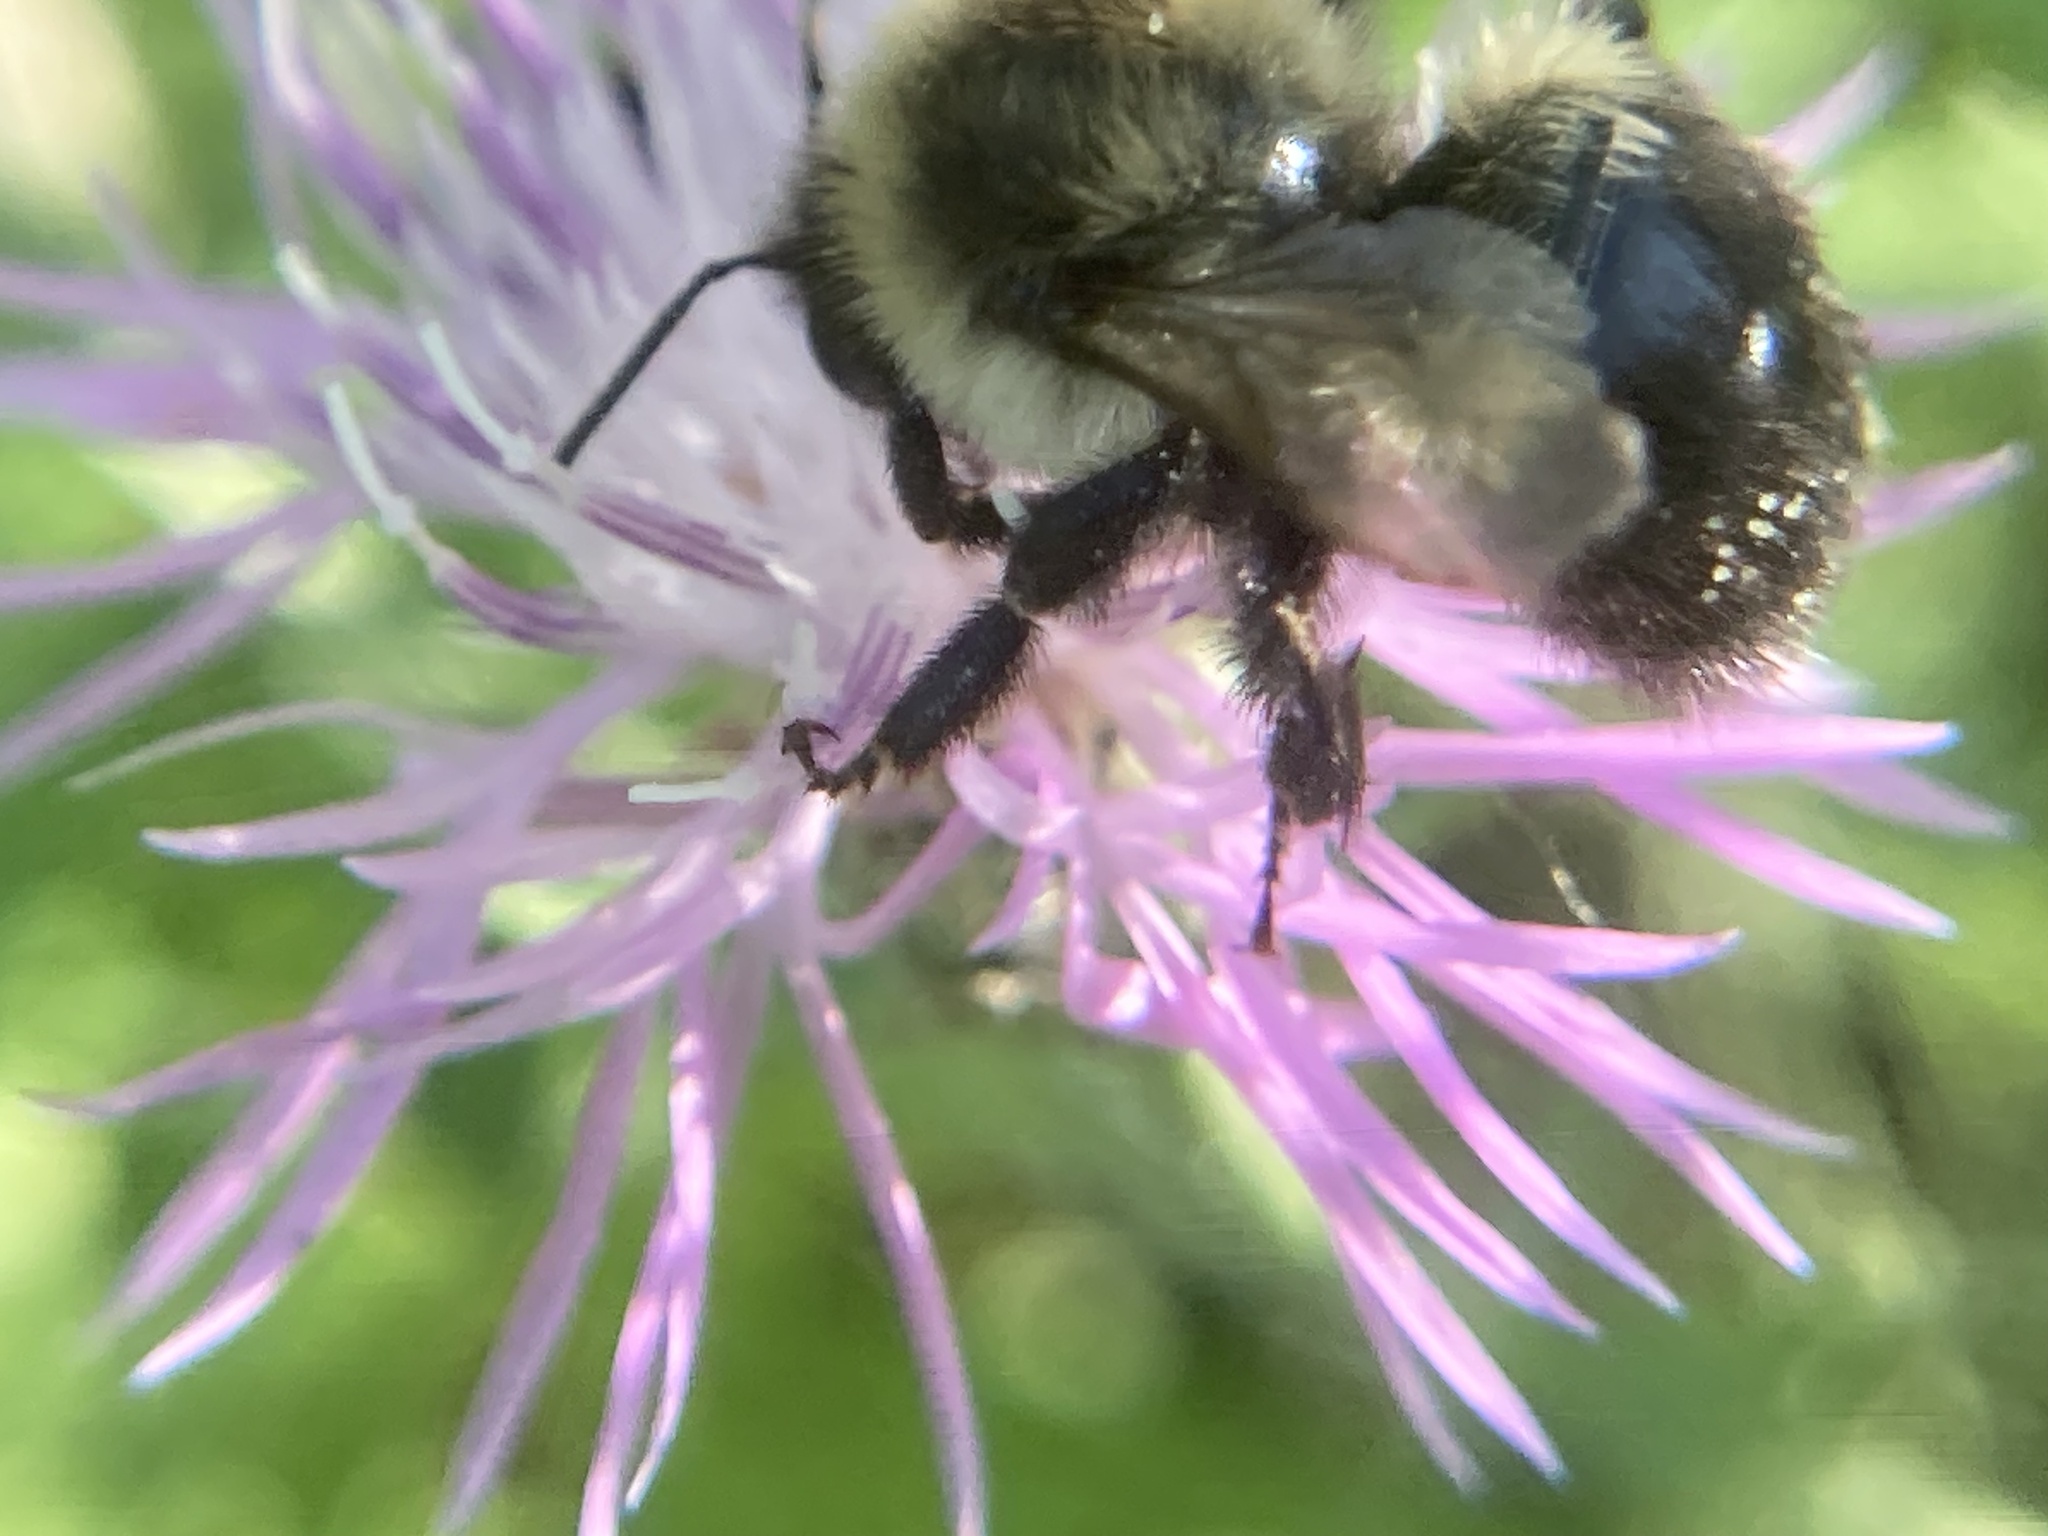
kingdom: Animalia
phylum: Arthropoda
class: Insecta
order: Hymenoptera
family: Apidae
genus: Bombus
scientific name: Bombus impatiens
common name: Common eastern bumble bee
